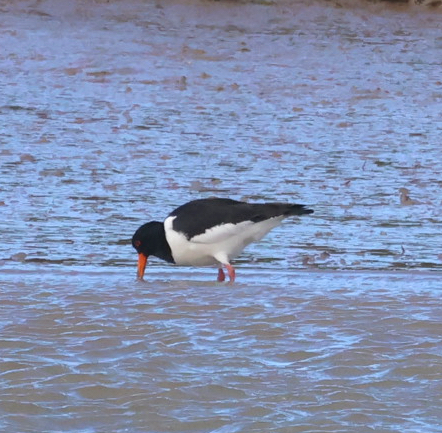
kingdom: Animalia
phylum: Chordata
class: Aves
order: Charadriiformes
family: Haematopodidae
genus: Haematopus
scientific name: Haematopus ostralegus
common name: Eurasian oystercatcher
